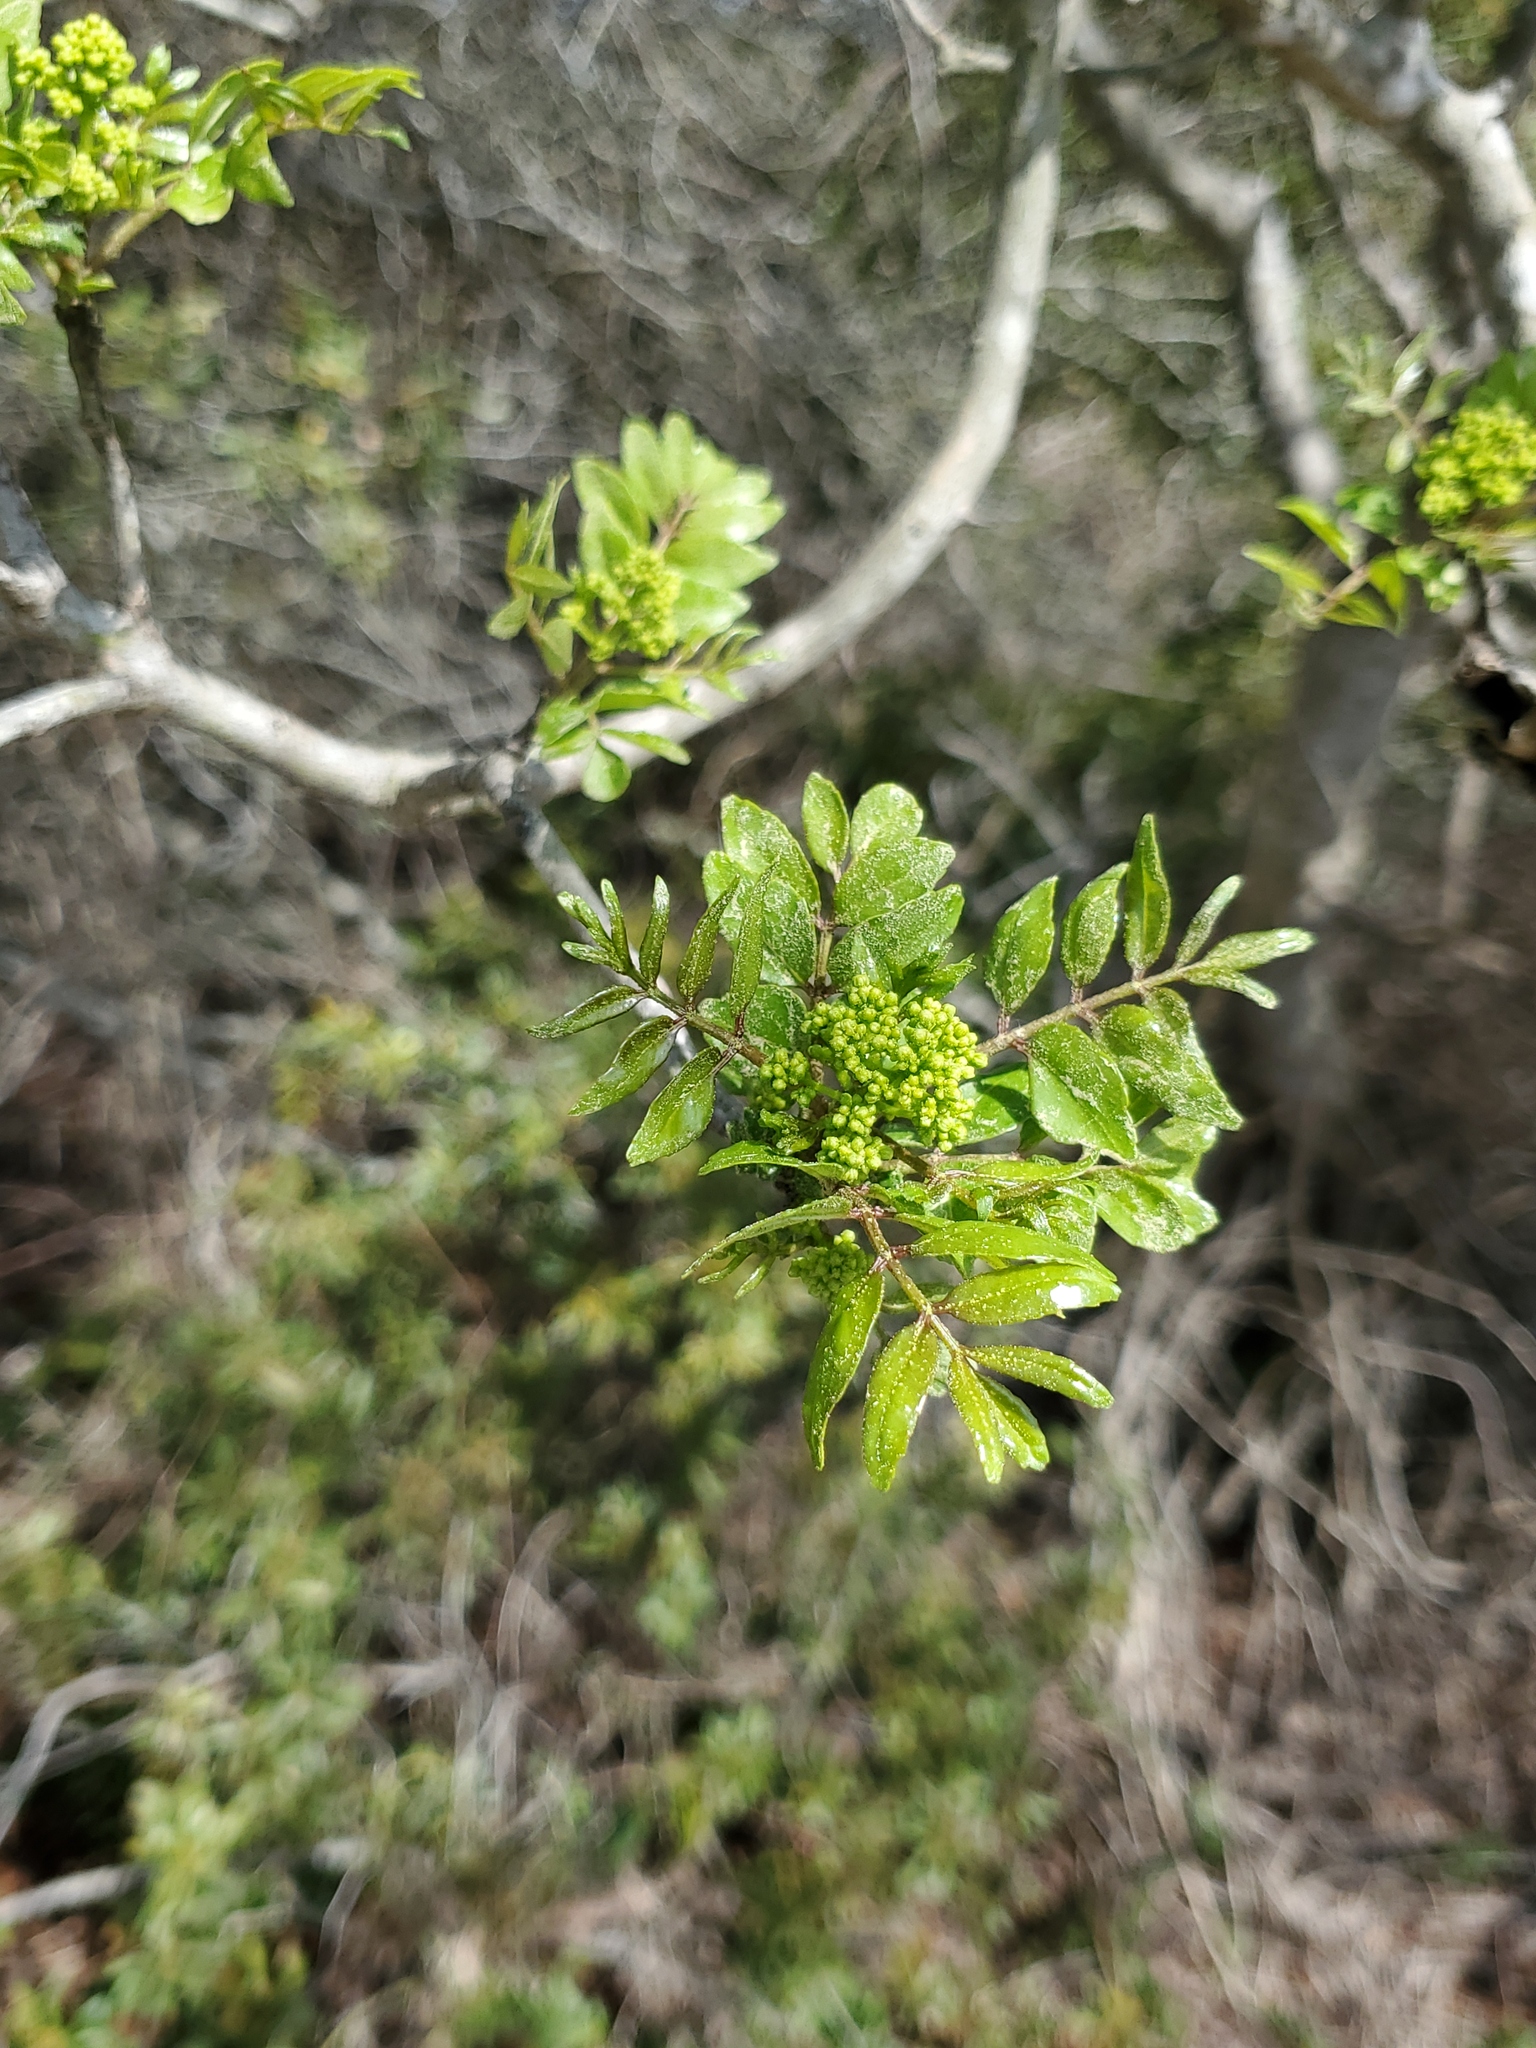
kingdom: Plantae
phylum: Tracheophyta
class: Magnoliopsida
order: Sapindales
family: Rutaceae
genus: Zanthoxylum
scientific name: Zanthoxylum clava-herculis
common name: Hercules'-club
